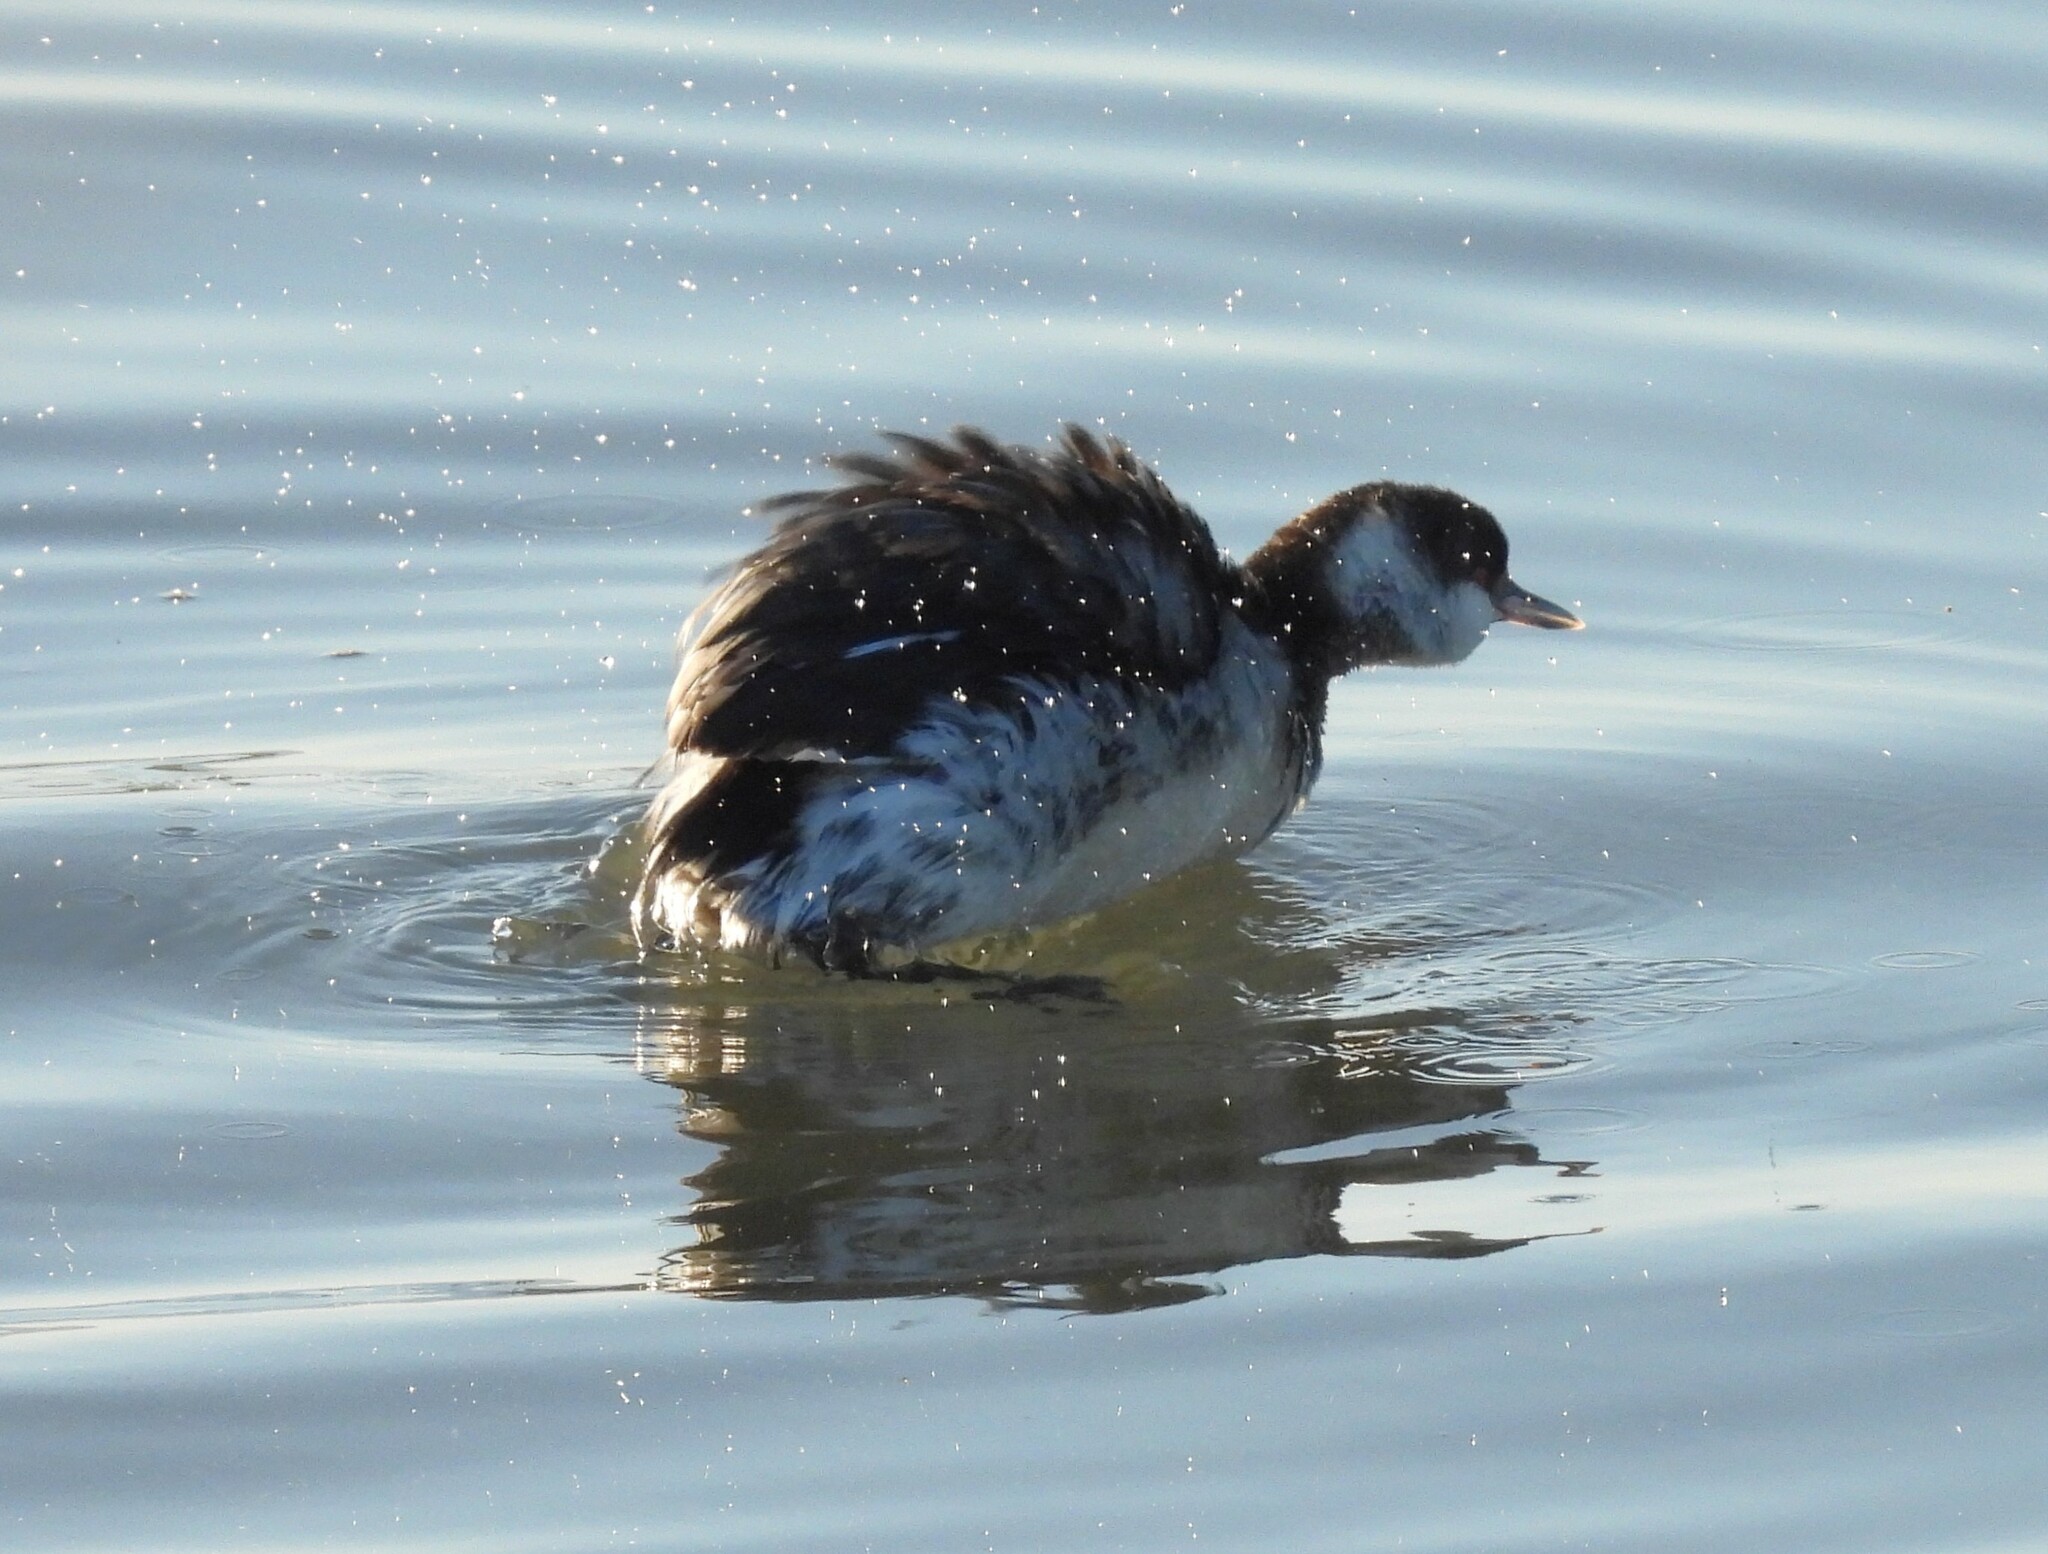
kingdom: Animalia
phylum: Chordata
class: Aves
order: Podicipediformes
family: Podicipedidae
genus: Podiceps
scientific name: Podiceps auritus
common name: Horned grebe
